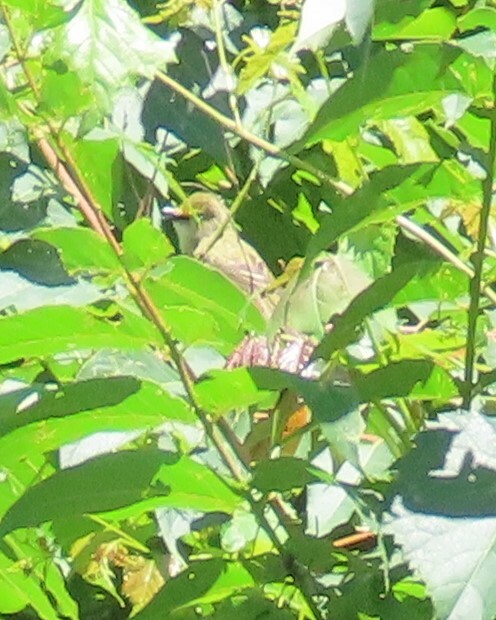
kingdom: Animalia
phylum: Chordata
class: Aves
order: Passeriformes
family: Vireonidae
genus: Vireo
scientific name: Vireo griseus
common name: White-eyed vireo
